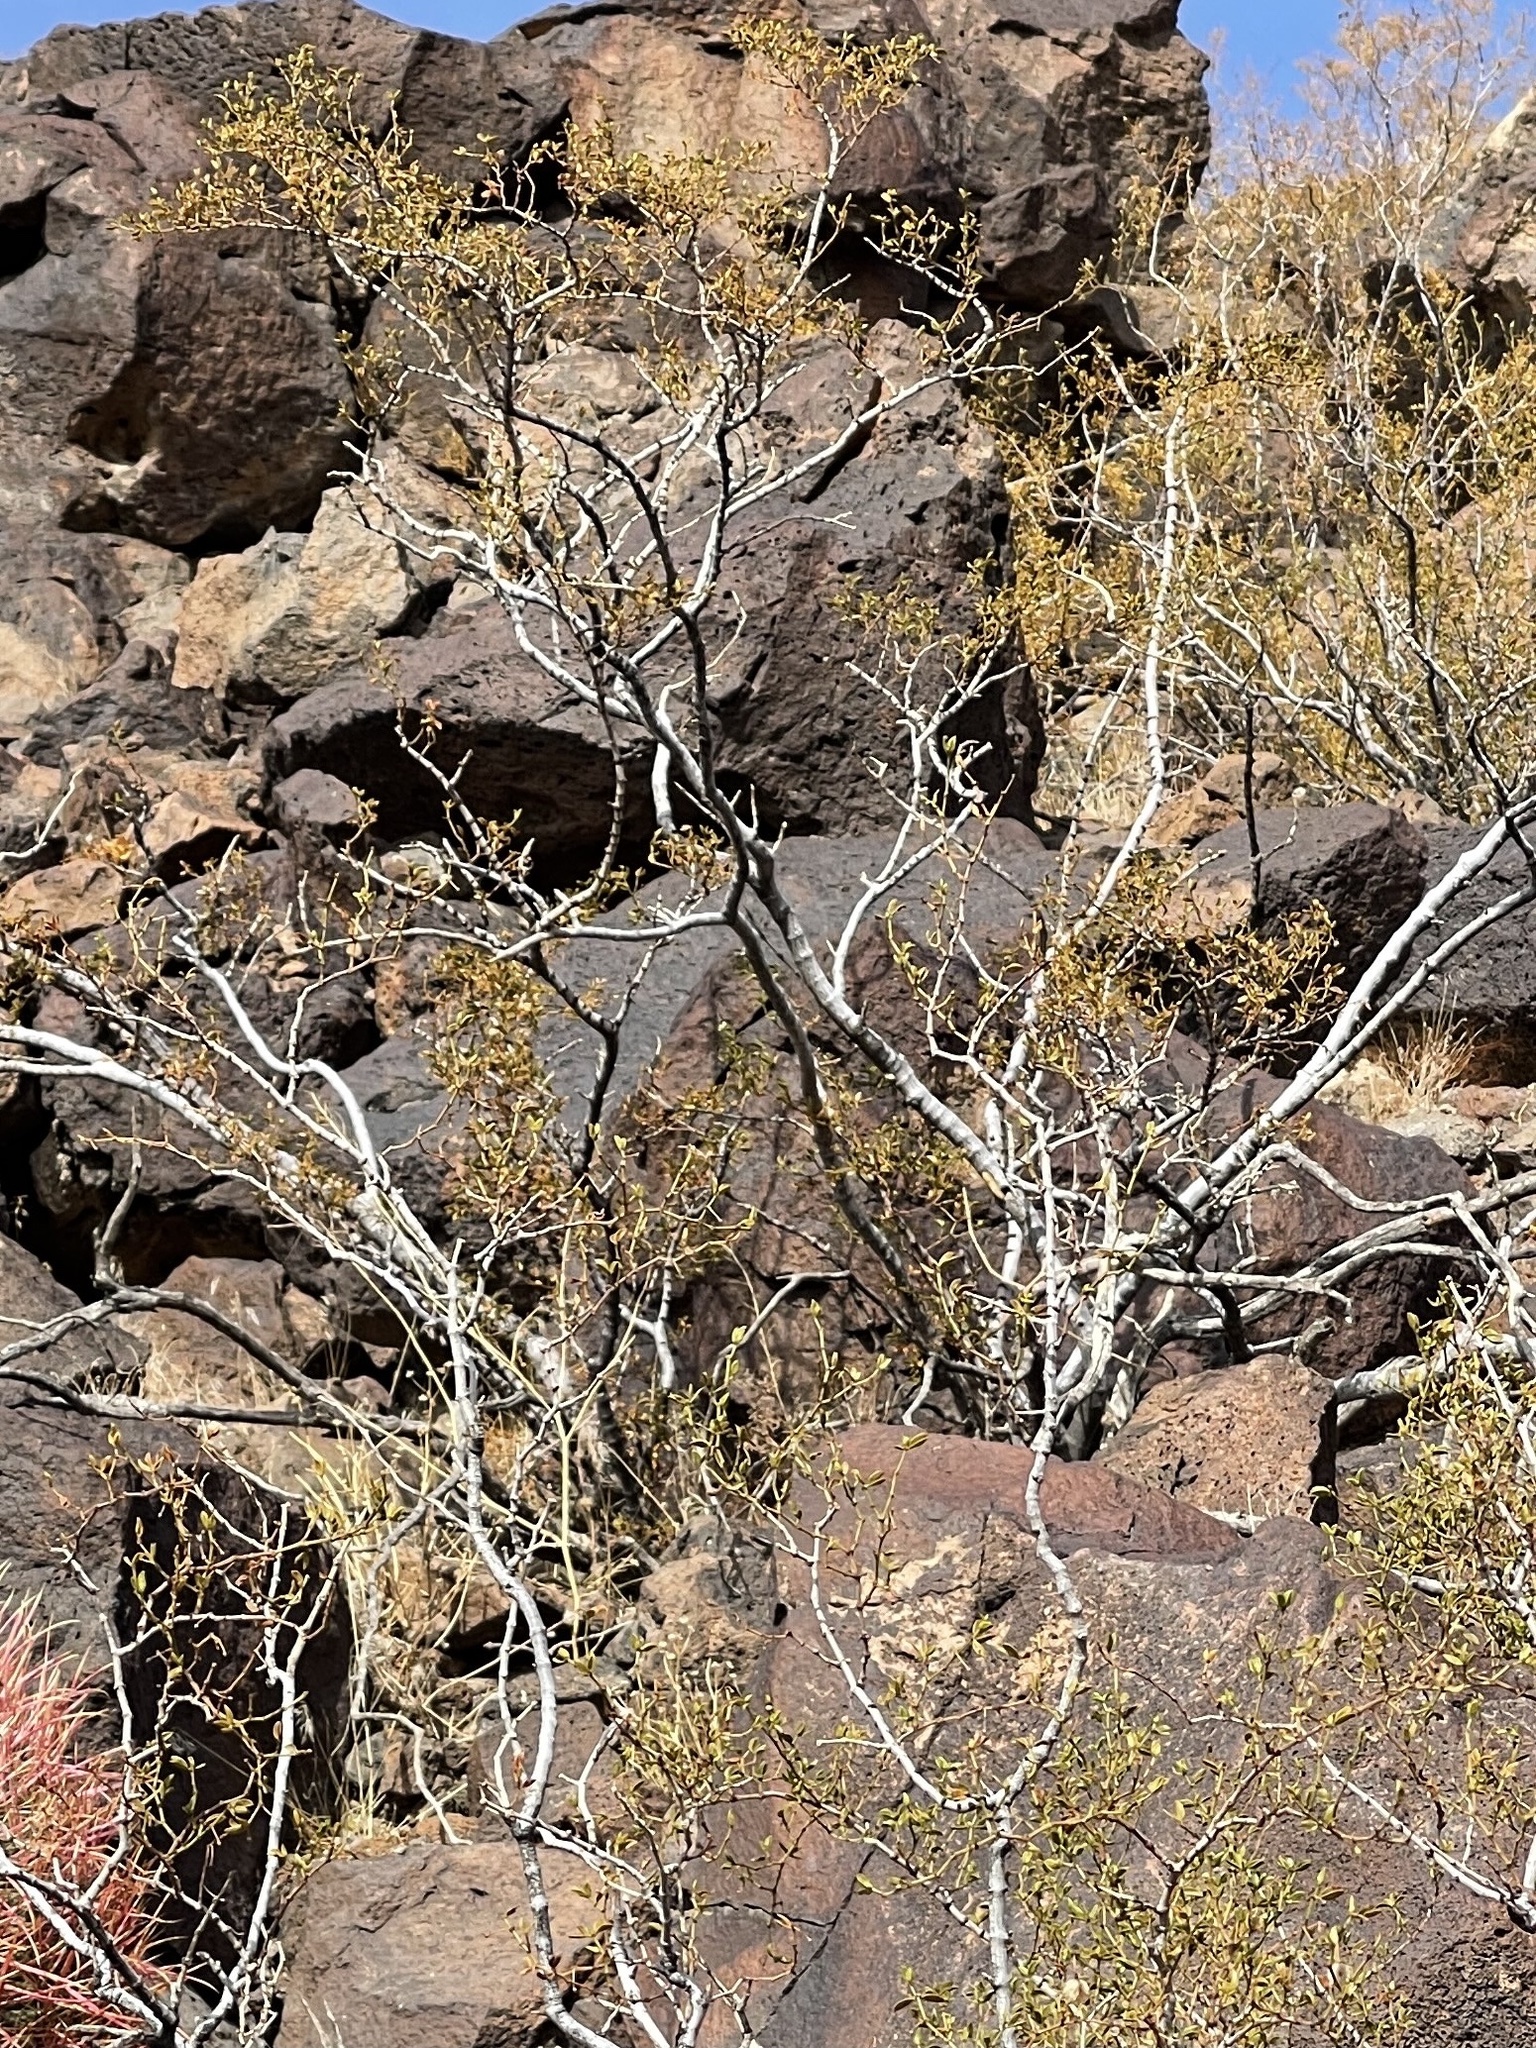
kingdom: Plantae
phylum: Tracheophyta
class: Magnoliopsida
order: Zygophyllales
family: Zygophyllaceae
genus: Larrea
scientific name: Larrea tridentata
